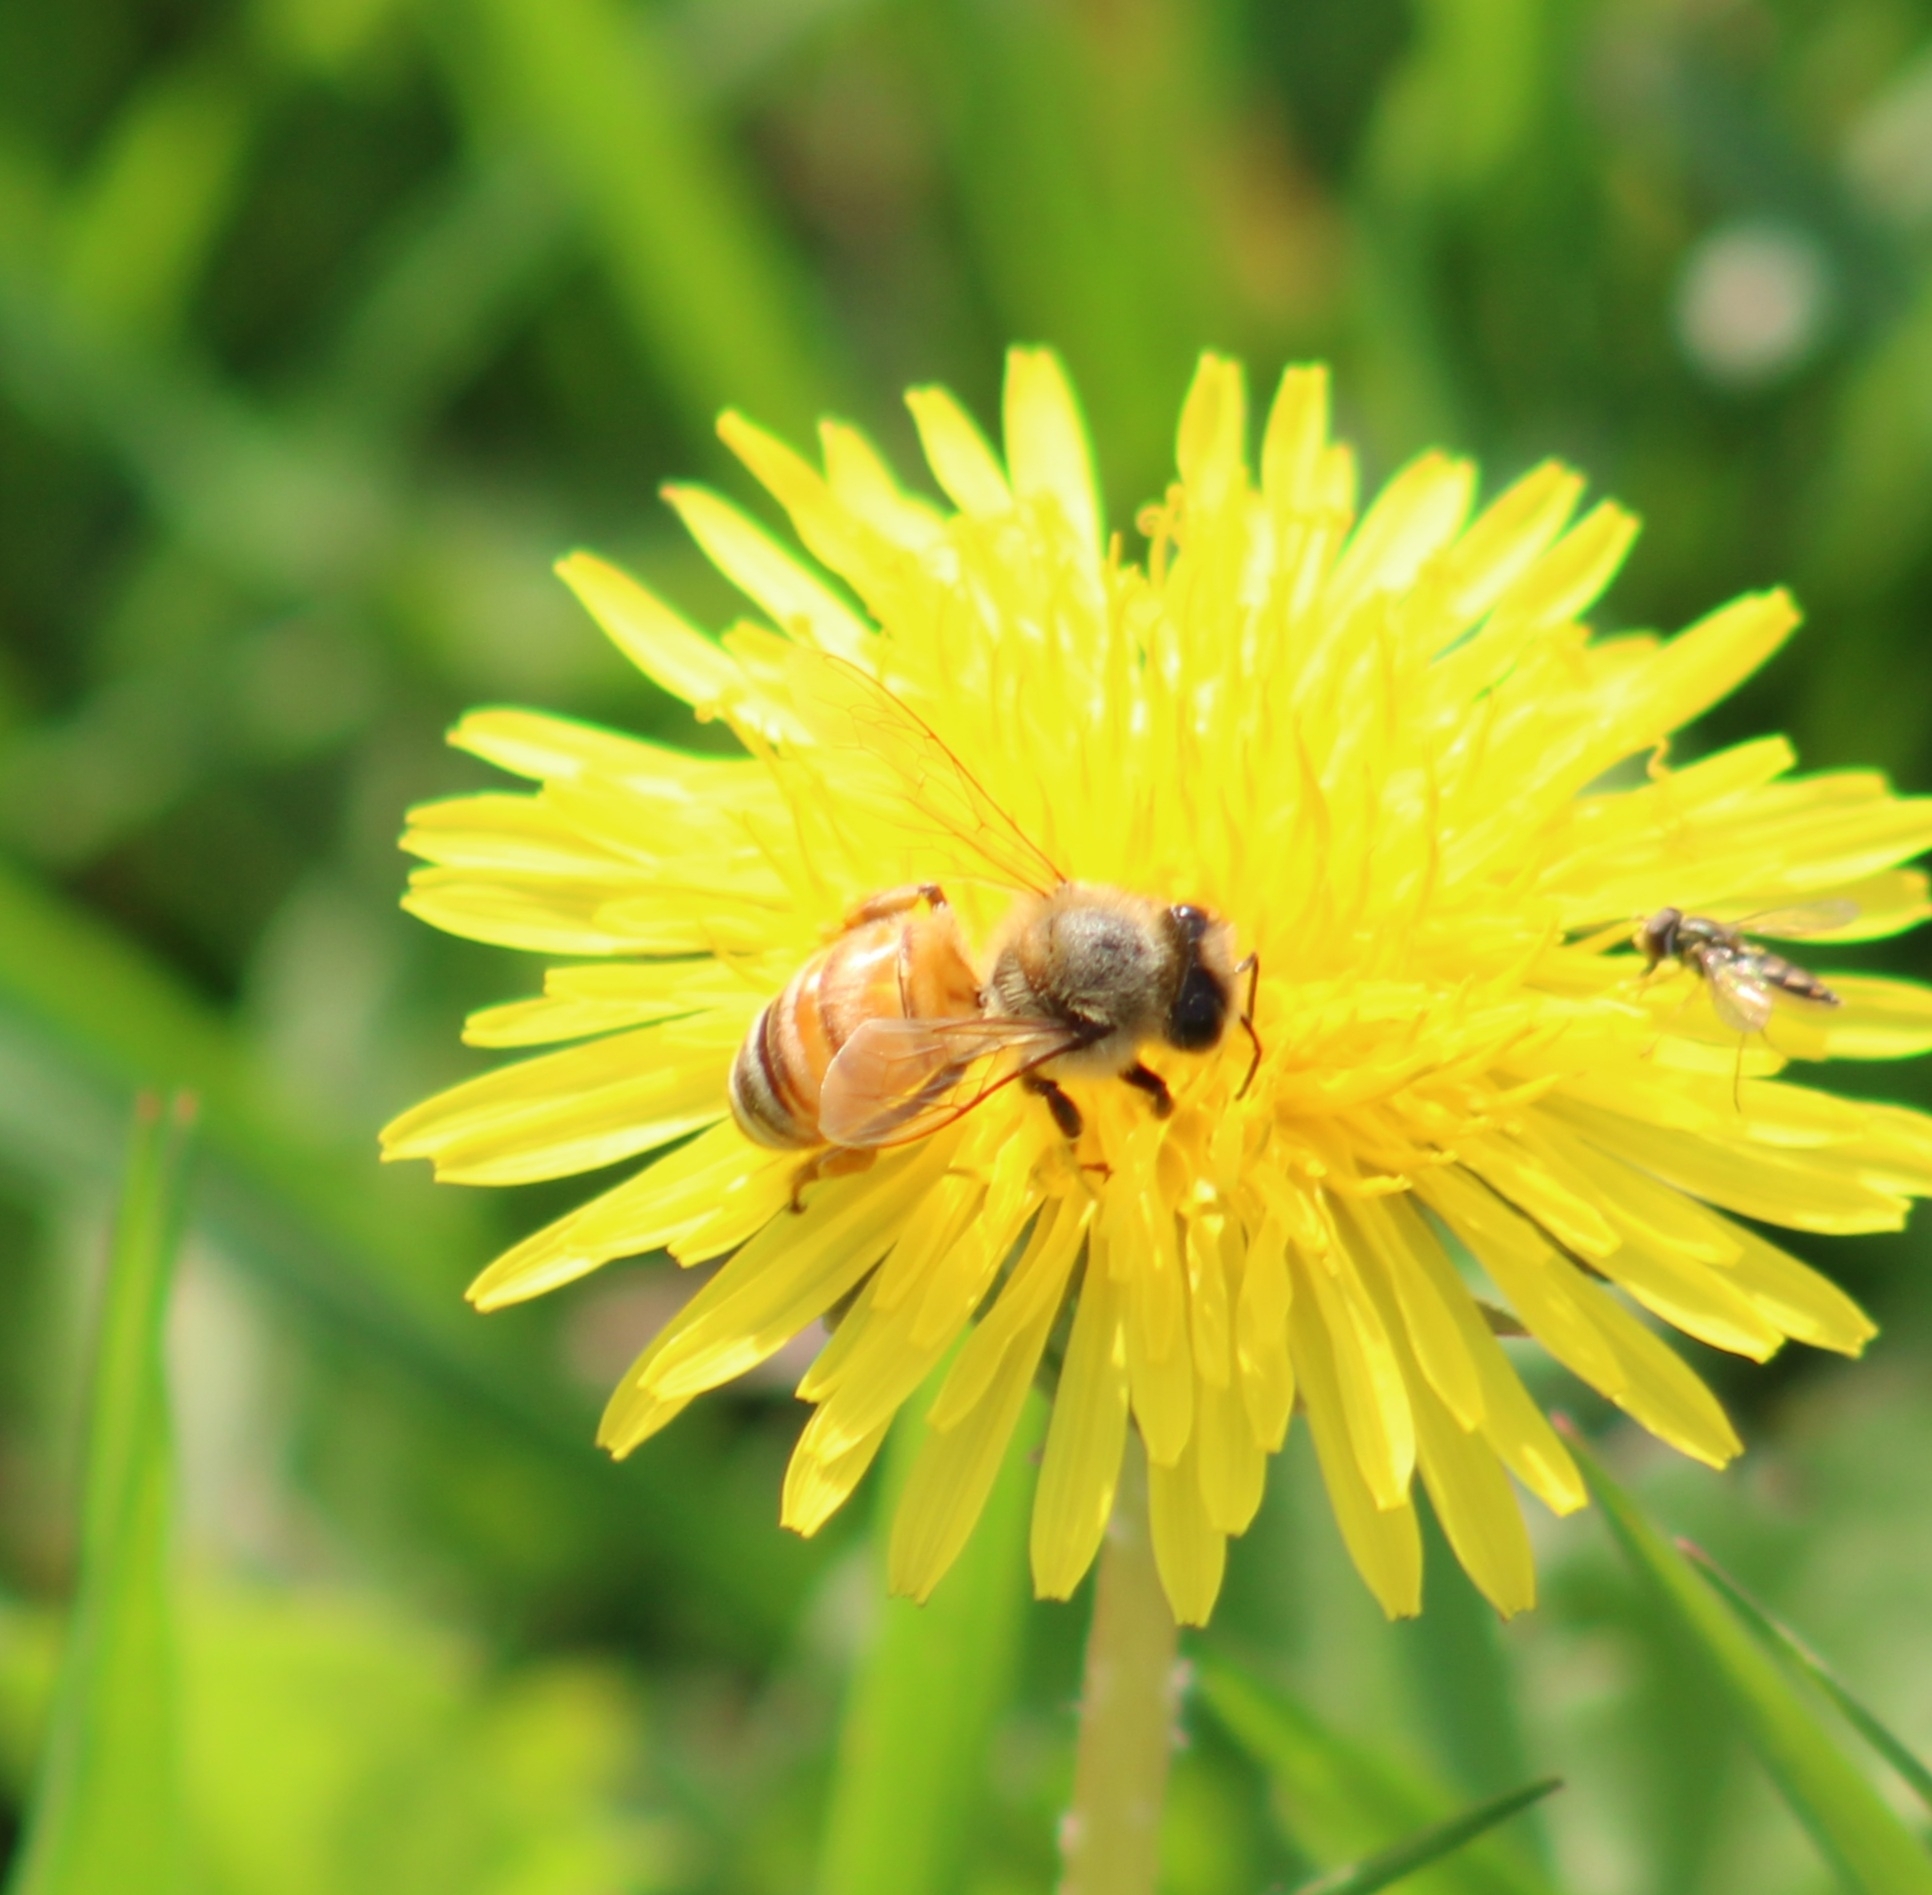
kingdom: Animalia
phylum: Arthropoda
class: Insecta
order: Hymenoptera
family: Apidae
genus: Apis
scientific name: Apis mellifera
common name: Honey bee
